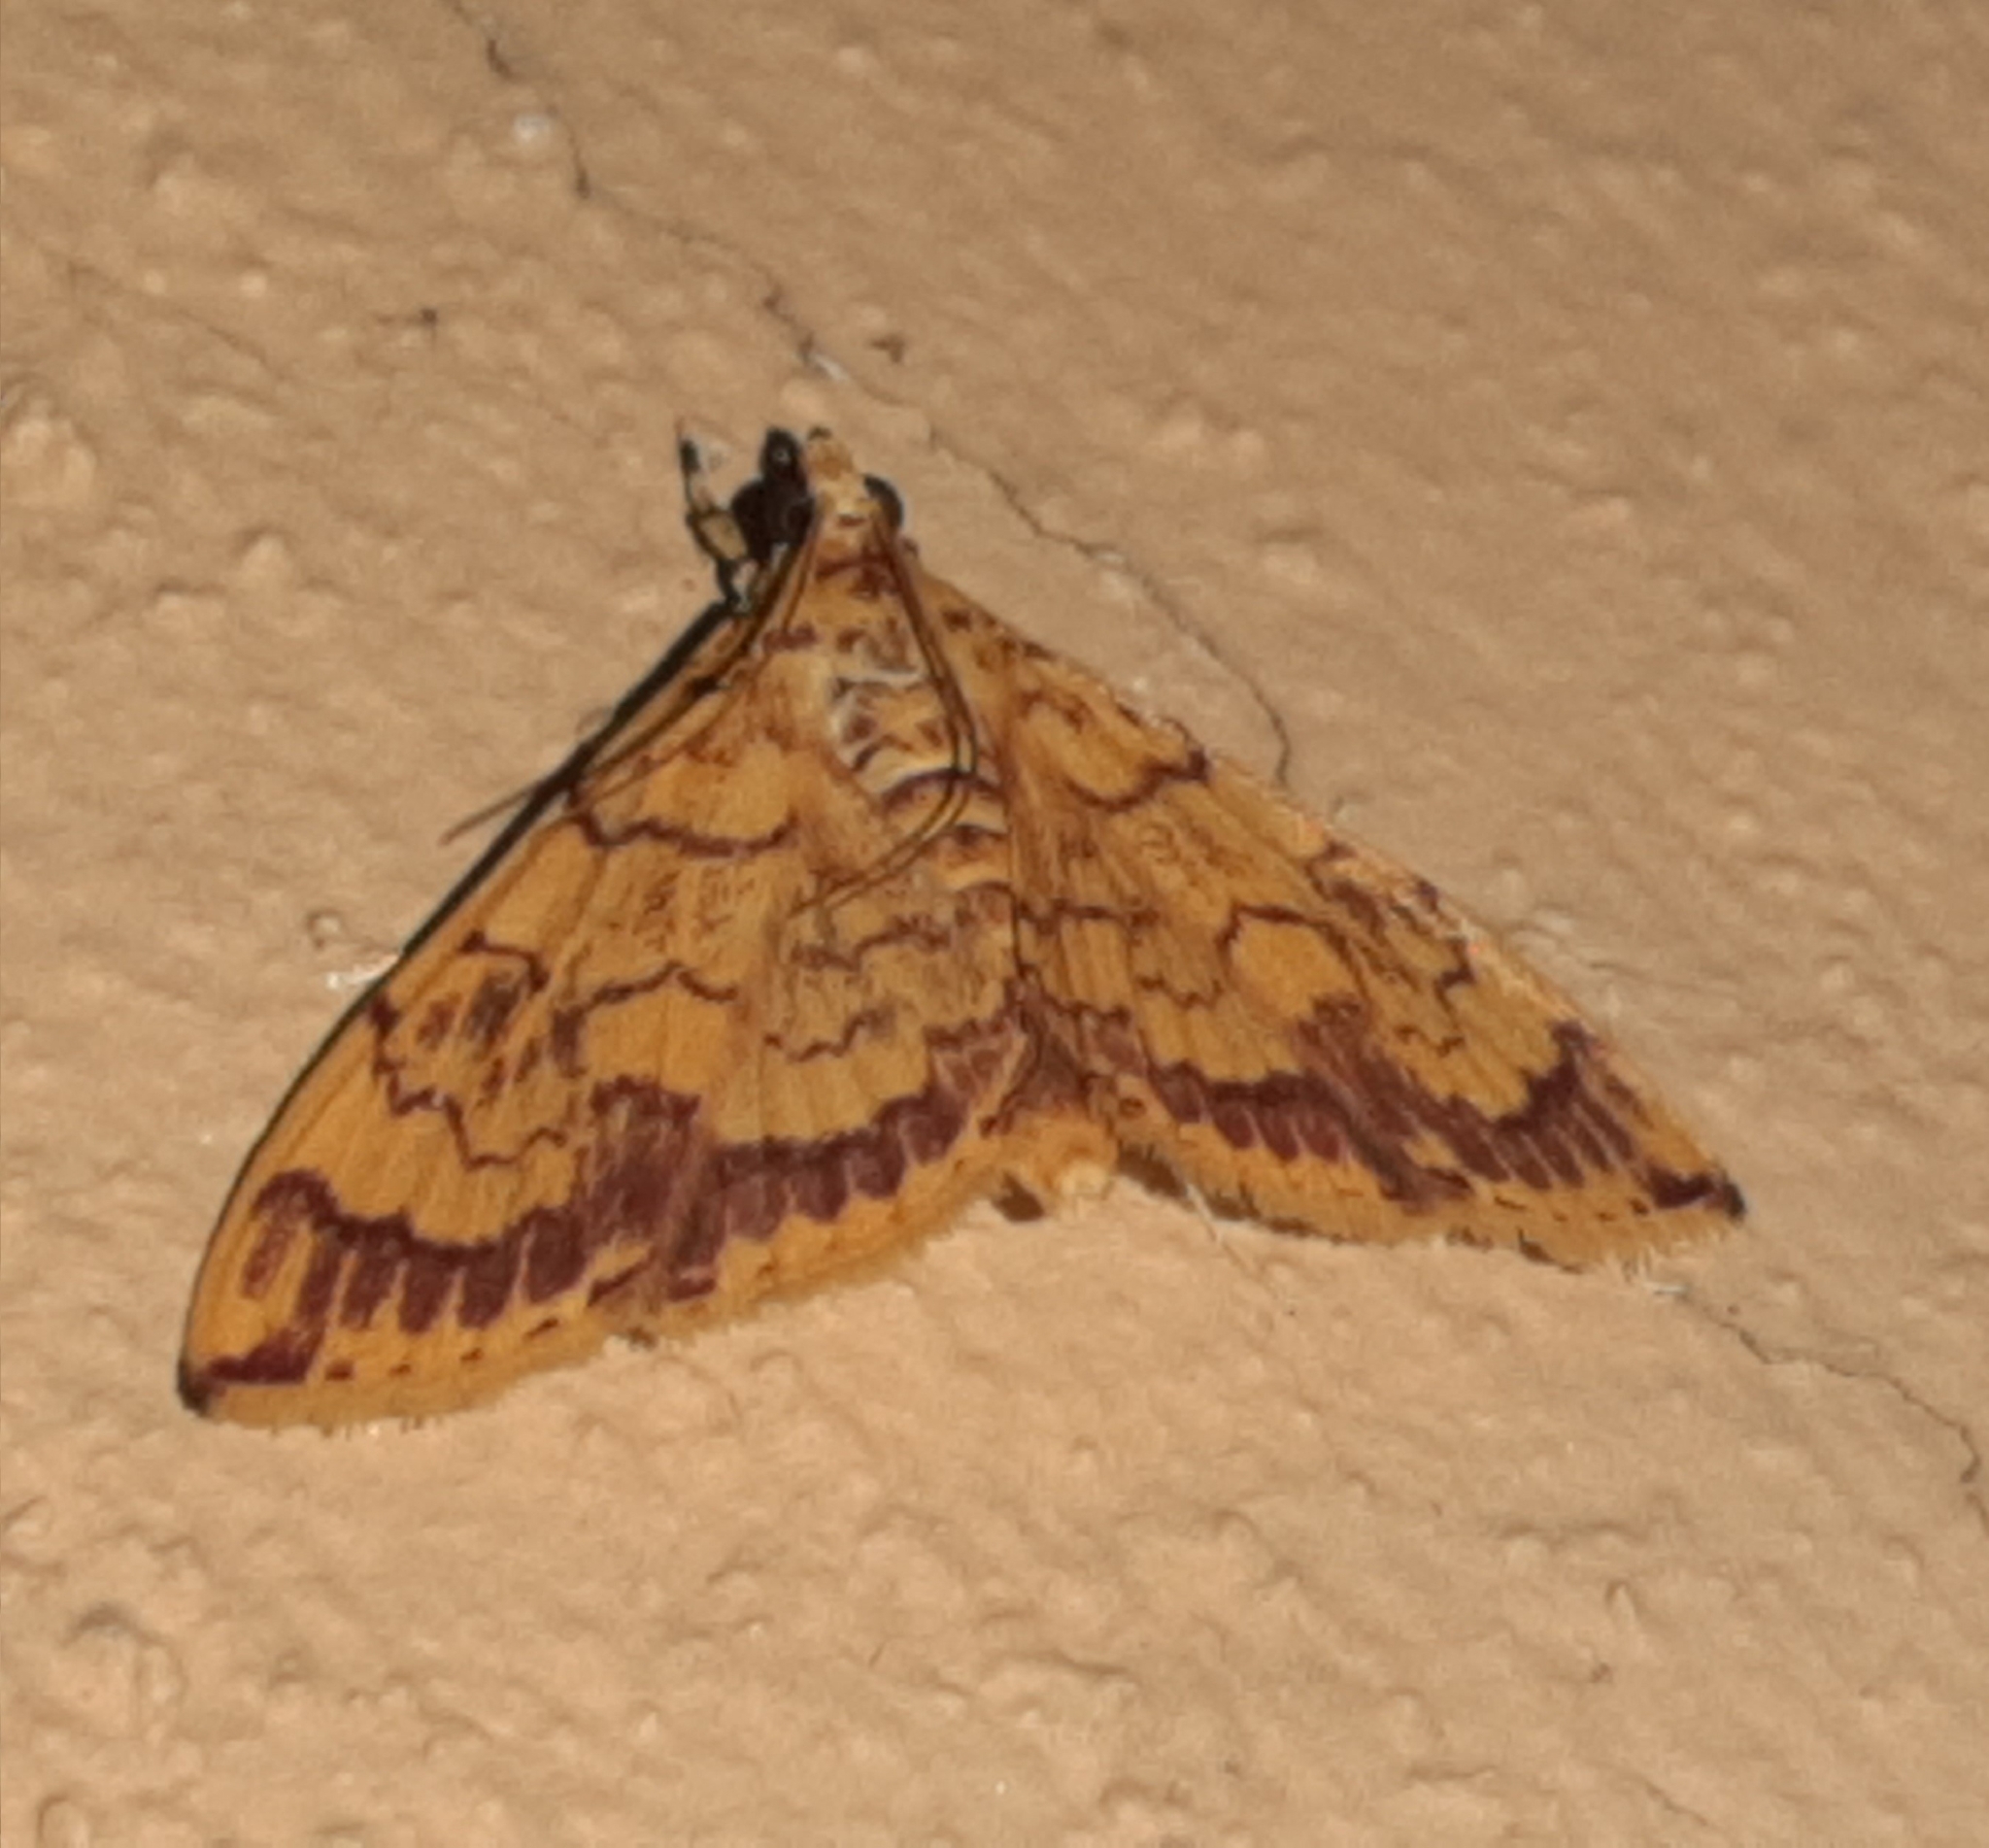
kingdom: Animalia
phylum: Arthropoda
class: Insecta
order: Lepidoptera
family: Crambidae
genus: Portentomorpha
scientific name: Portentomorpha xanthialis
